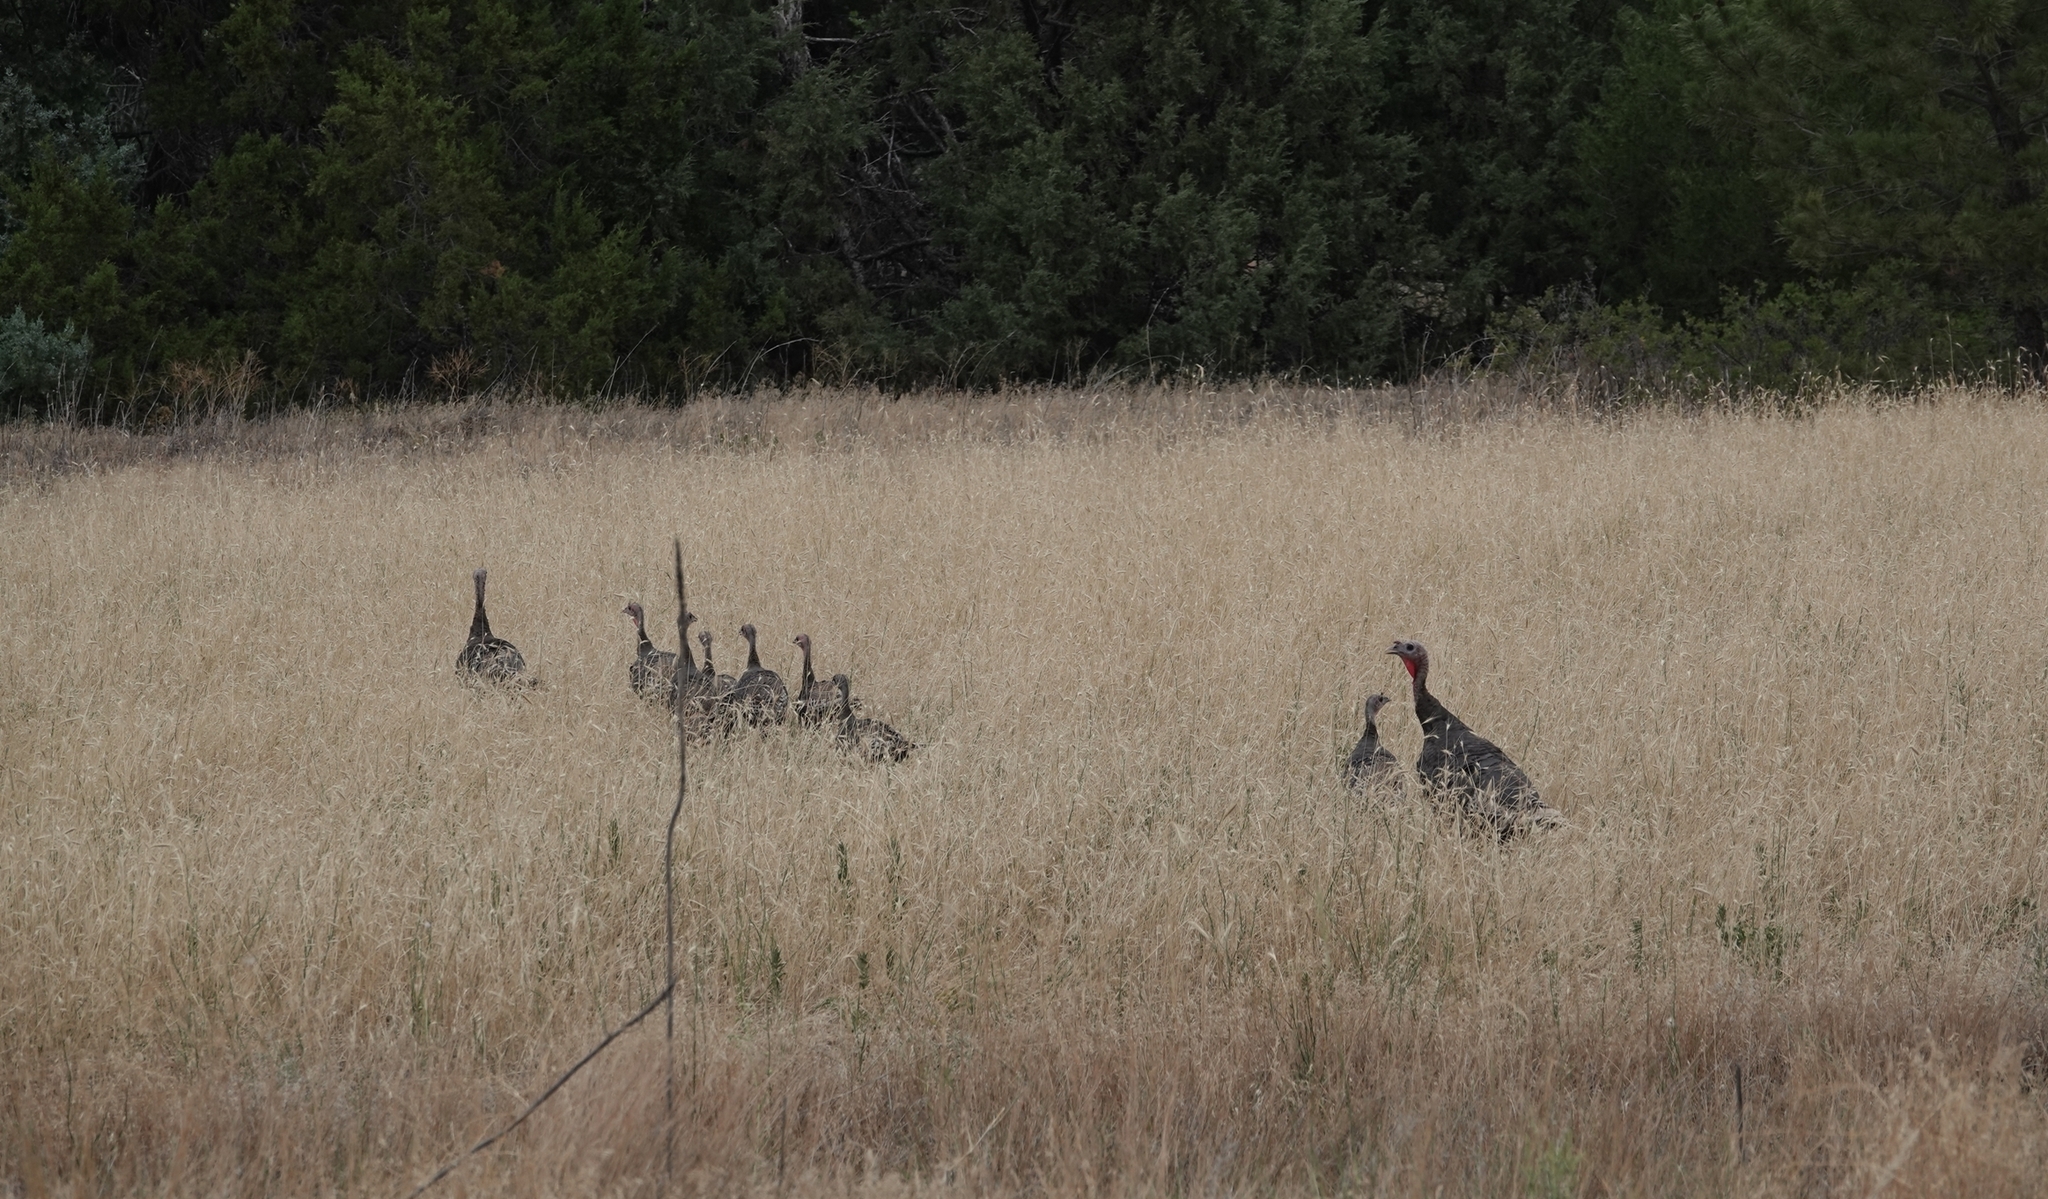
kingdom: Animalia
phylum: Chordata
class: Aves
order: Galliformes
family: Phasianidae
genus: Meleagris
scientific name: Meleagris gallopavo
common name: Wild turkey
